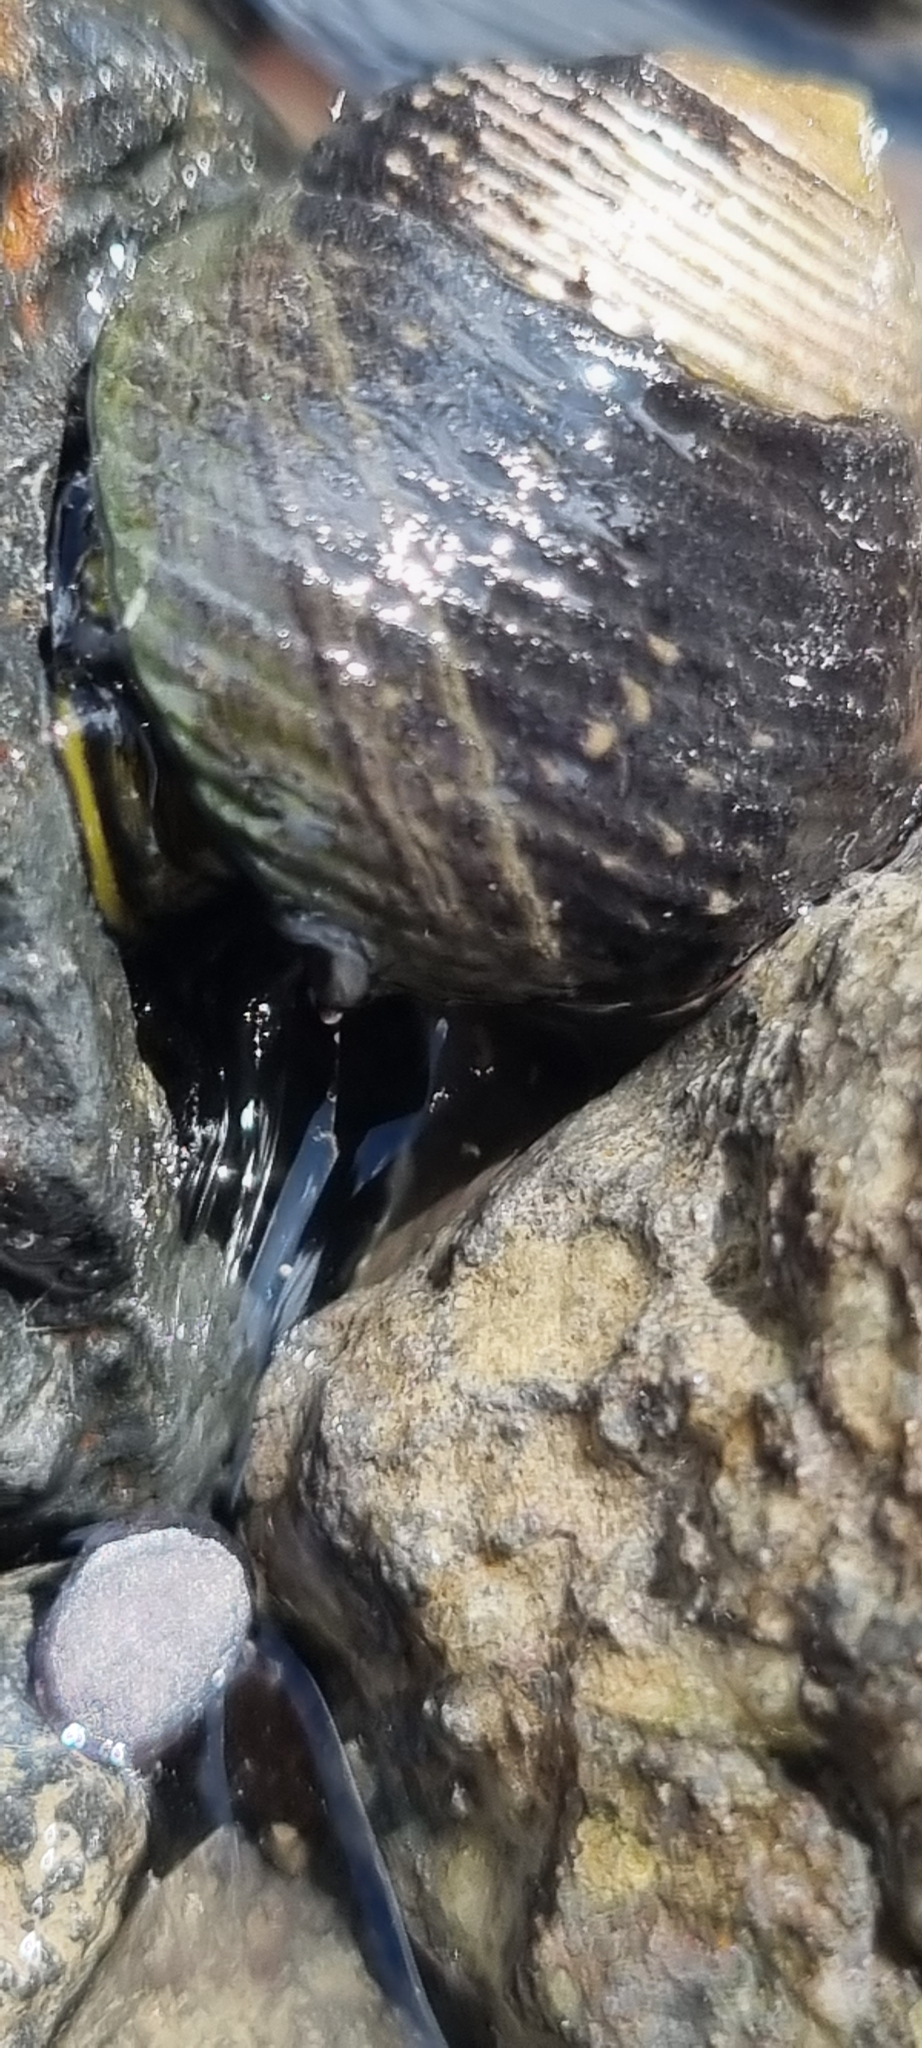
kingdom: Animalia
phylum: Mollusca
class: Gastropoda
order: Trochida
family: Trochidae
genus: Diloma
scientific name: Diloma zelandicum
